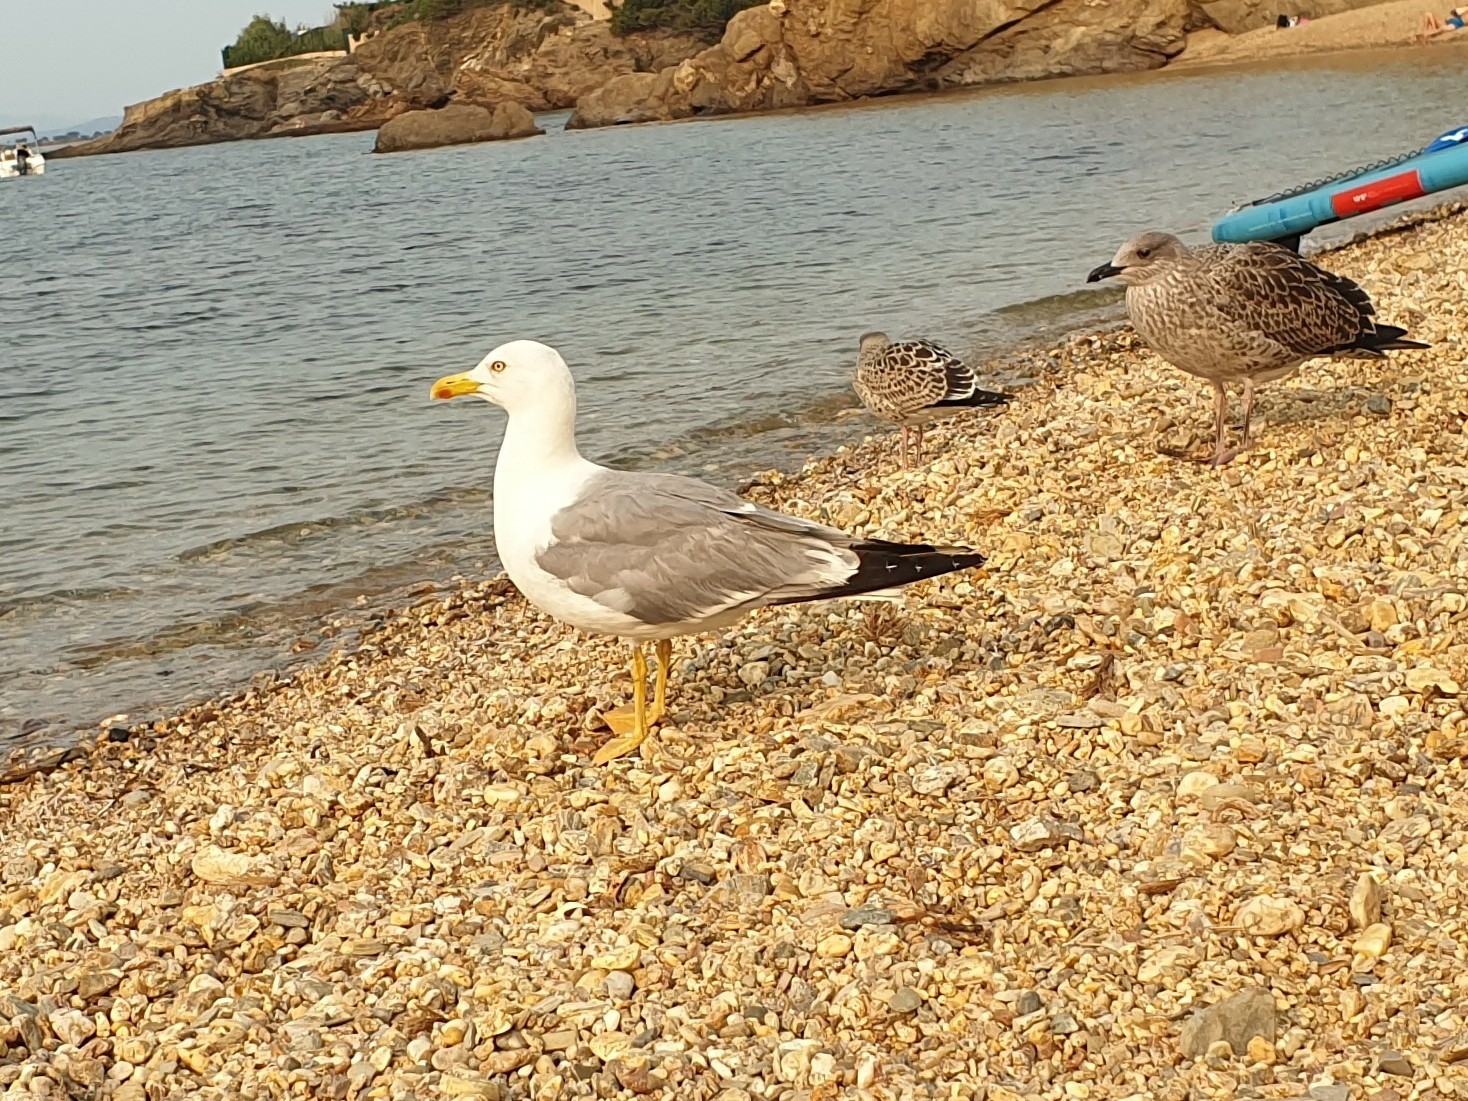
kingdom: Animalia
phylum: Chordata
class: Aves
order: Charadriiformes
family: Laridae
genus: Larus
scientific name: Larus michahellis
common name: Yellow-legged gull
